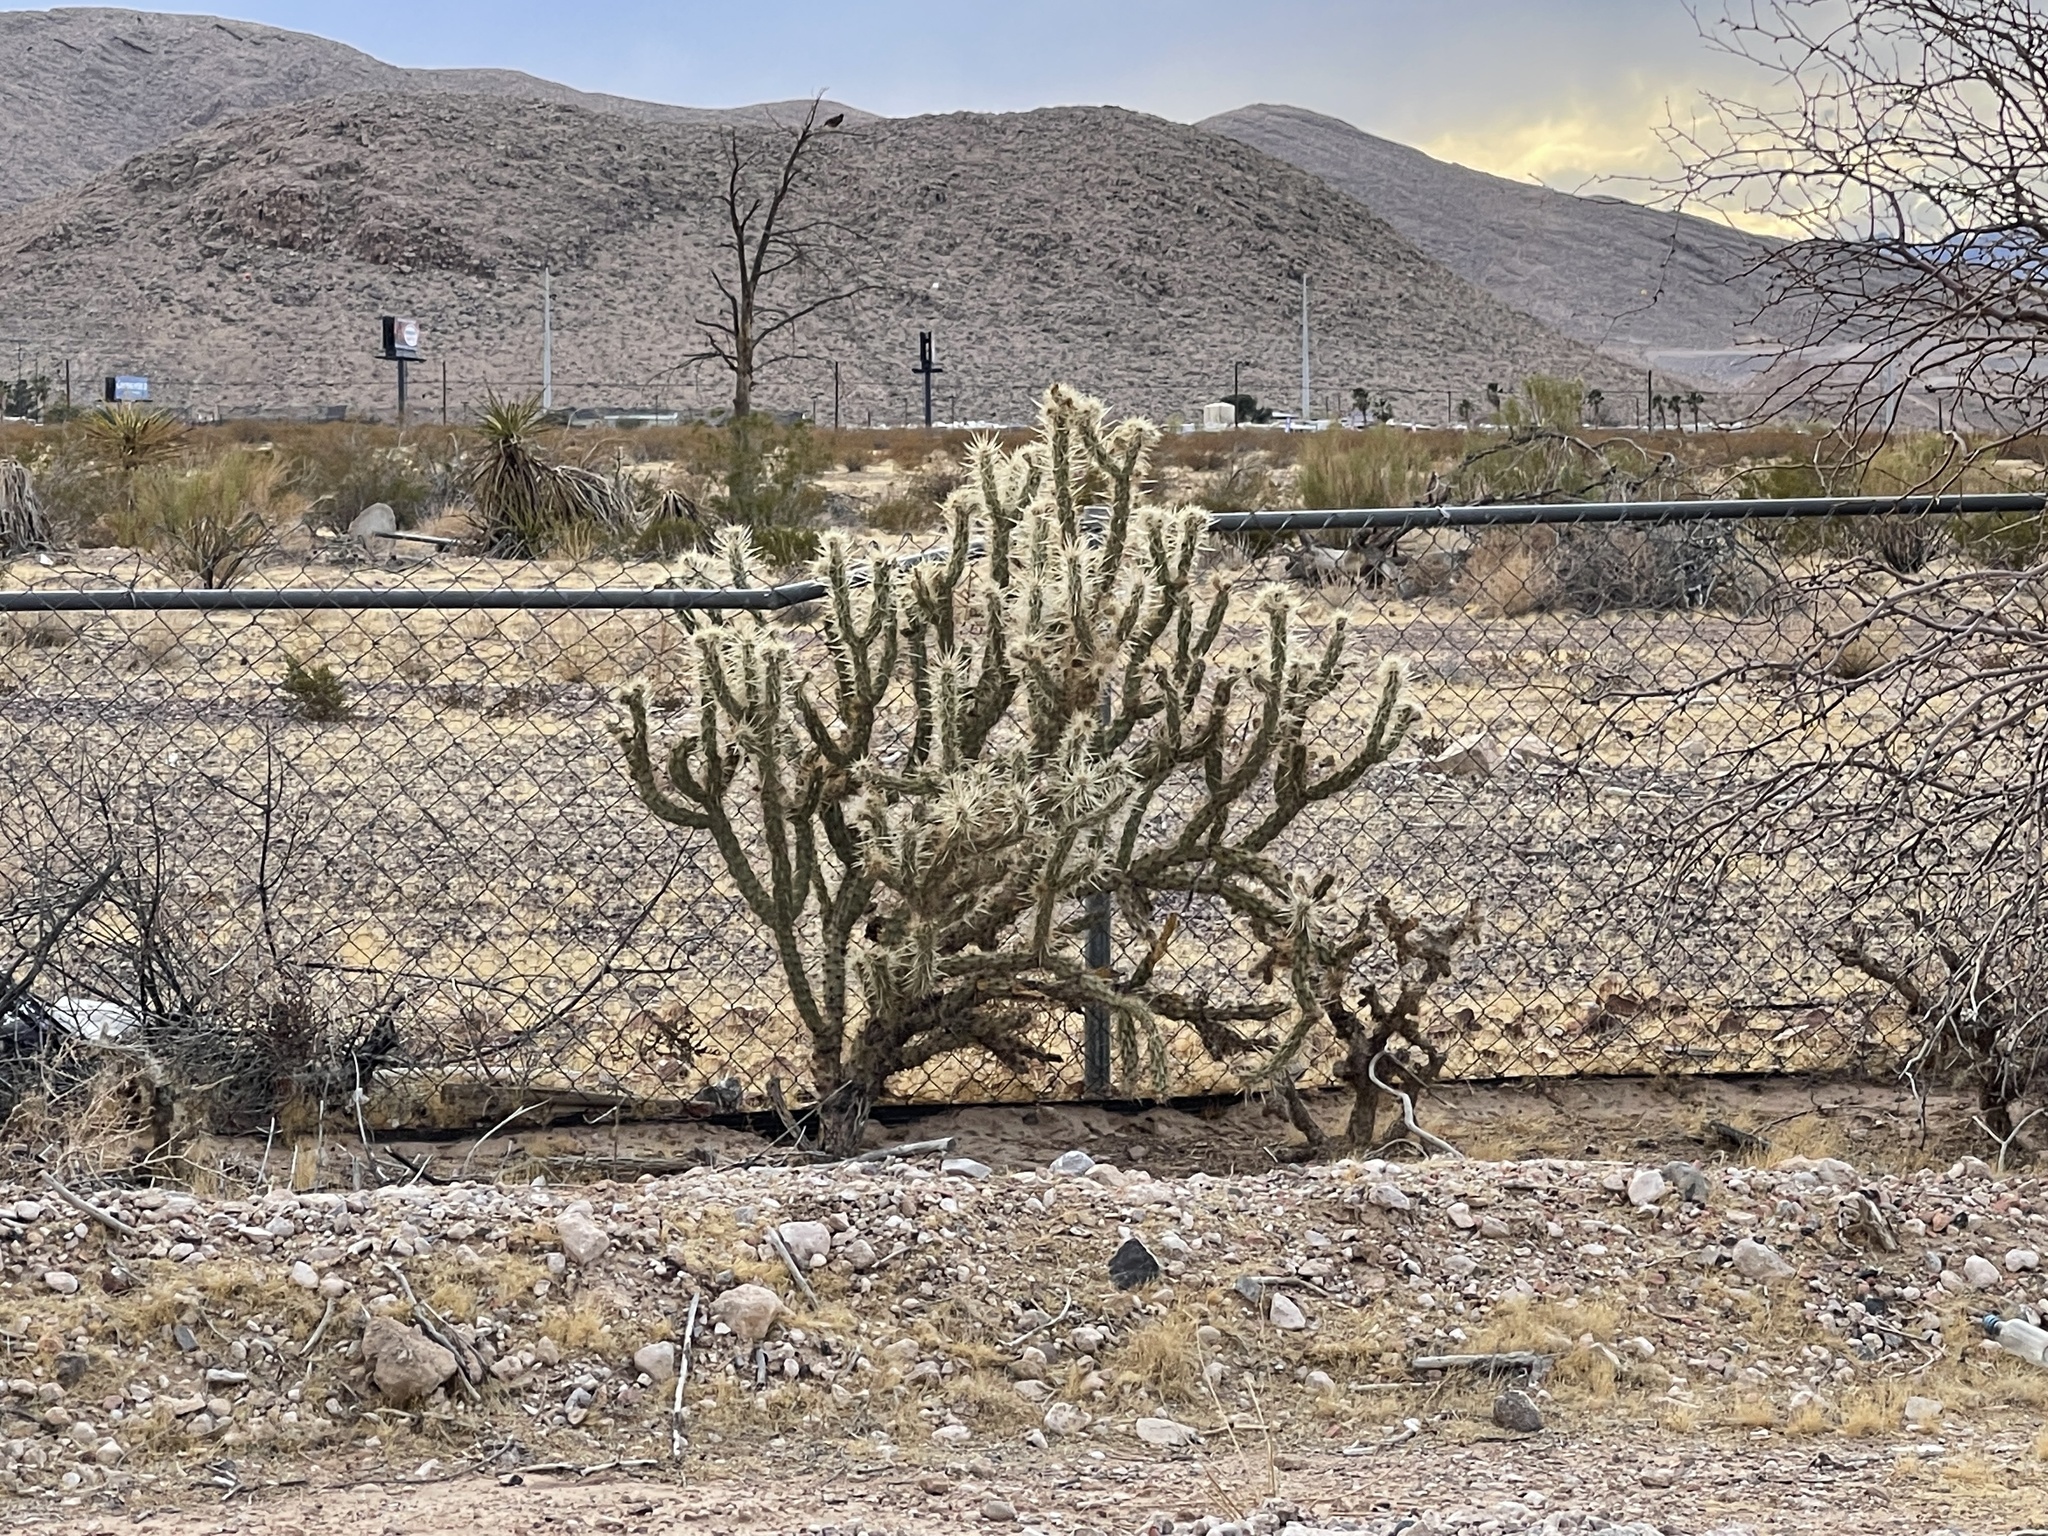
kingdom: Plantae
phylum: Tracheophyta
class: Magnoliopsida
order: Caryophyllales
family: Cactaceae
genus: Cylindropuntia
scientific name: Cylindropuntia acanthocarpa
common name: Buckhorn cholla
